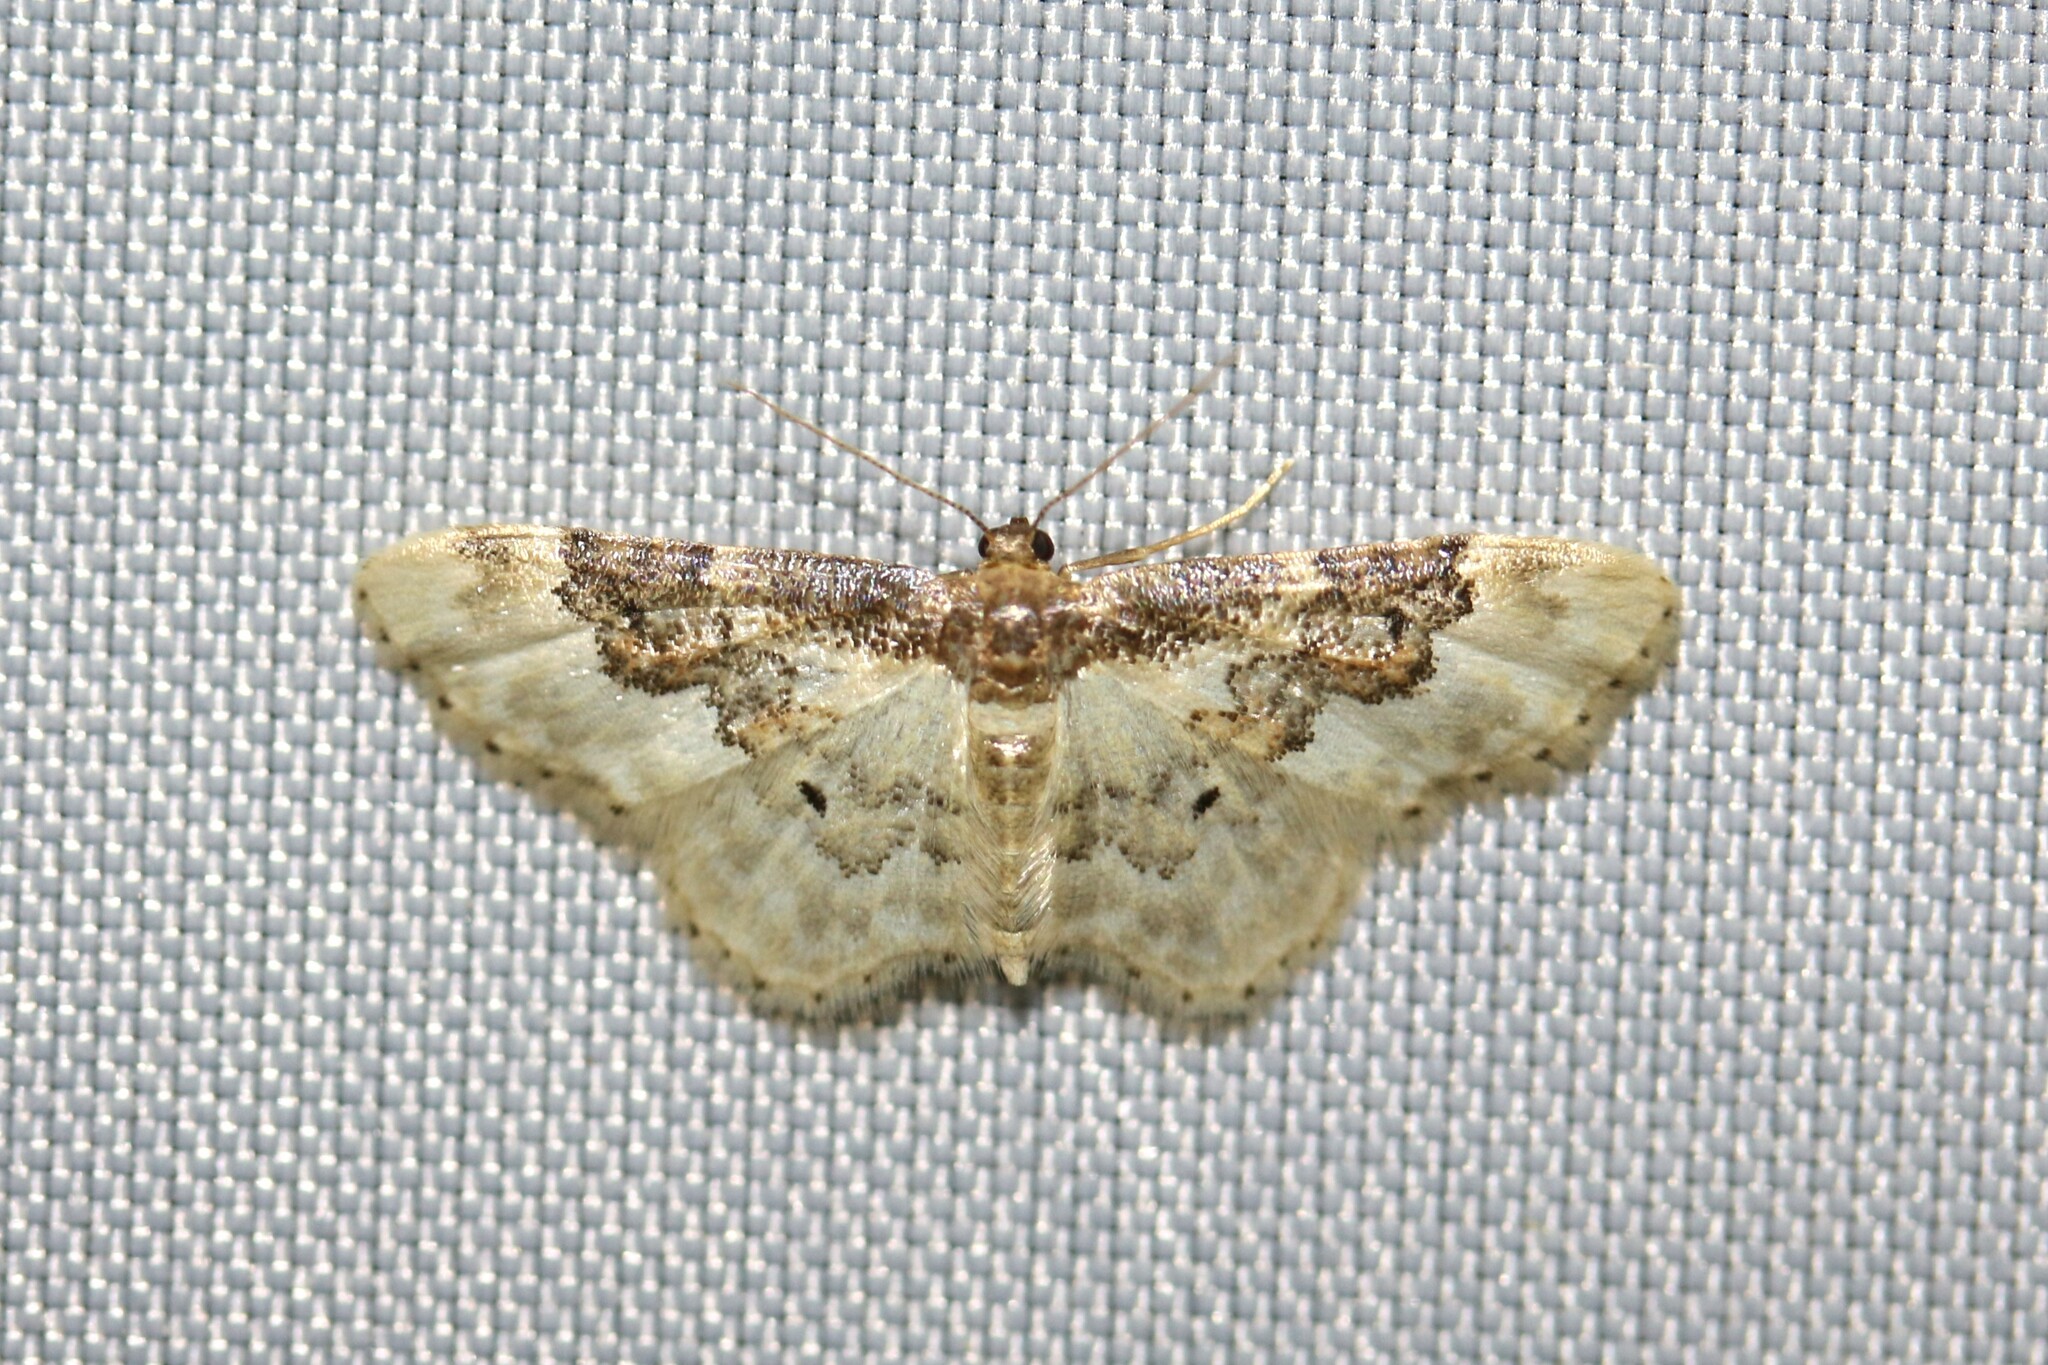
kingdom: Animalia
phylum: Arthropoda
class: Insecta
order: Lepidoptera
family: Geometridae
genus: Idaea
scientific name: Idaea rusticata
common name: Least carpet
